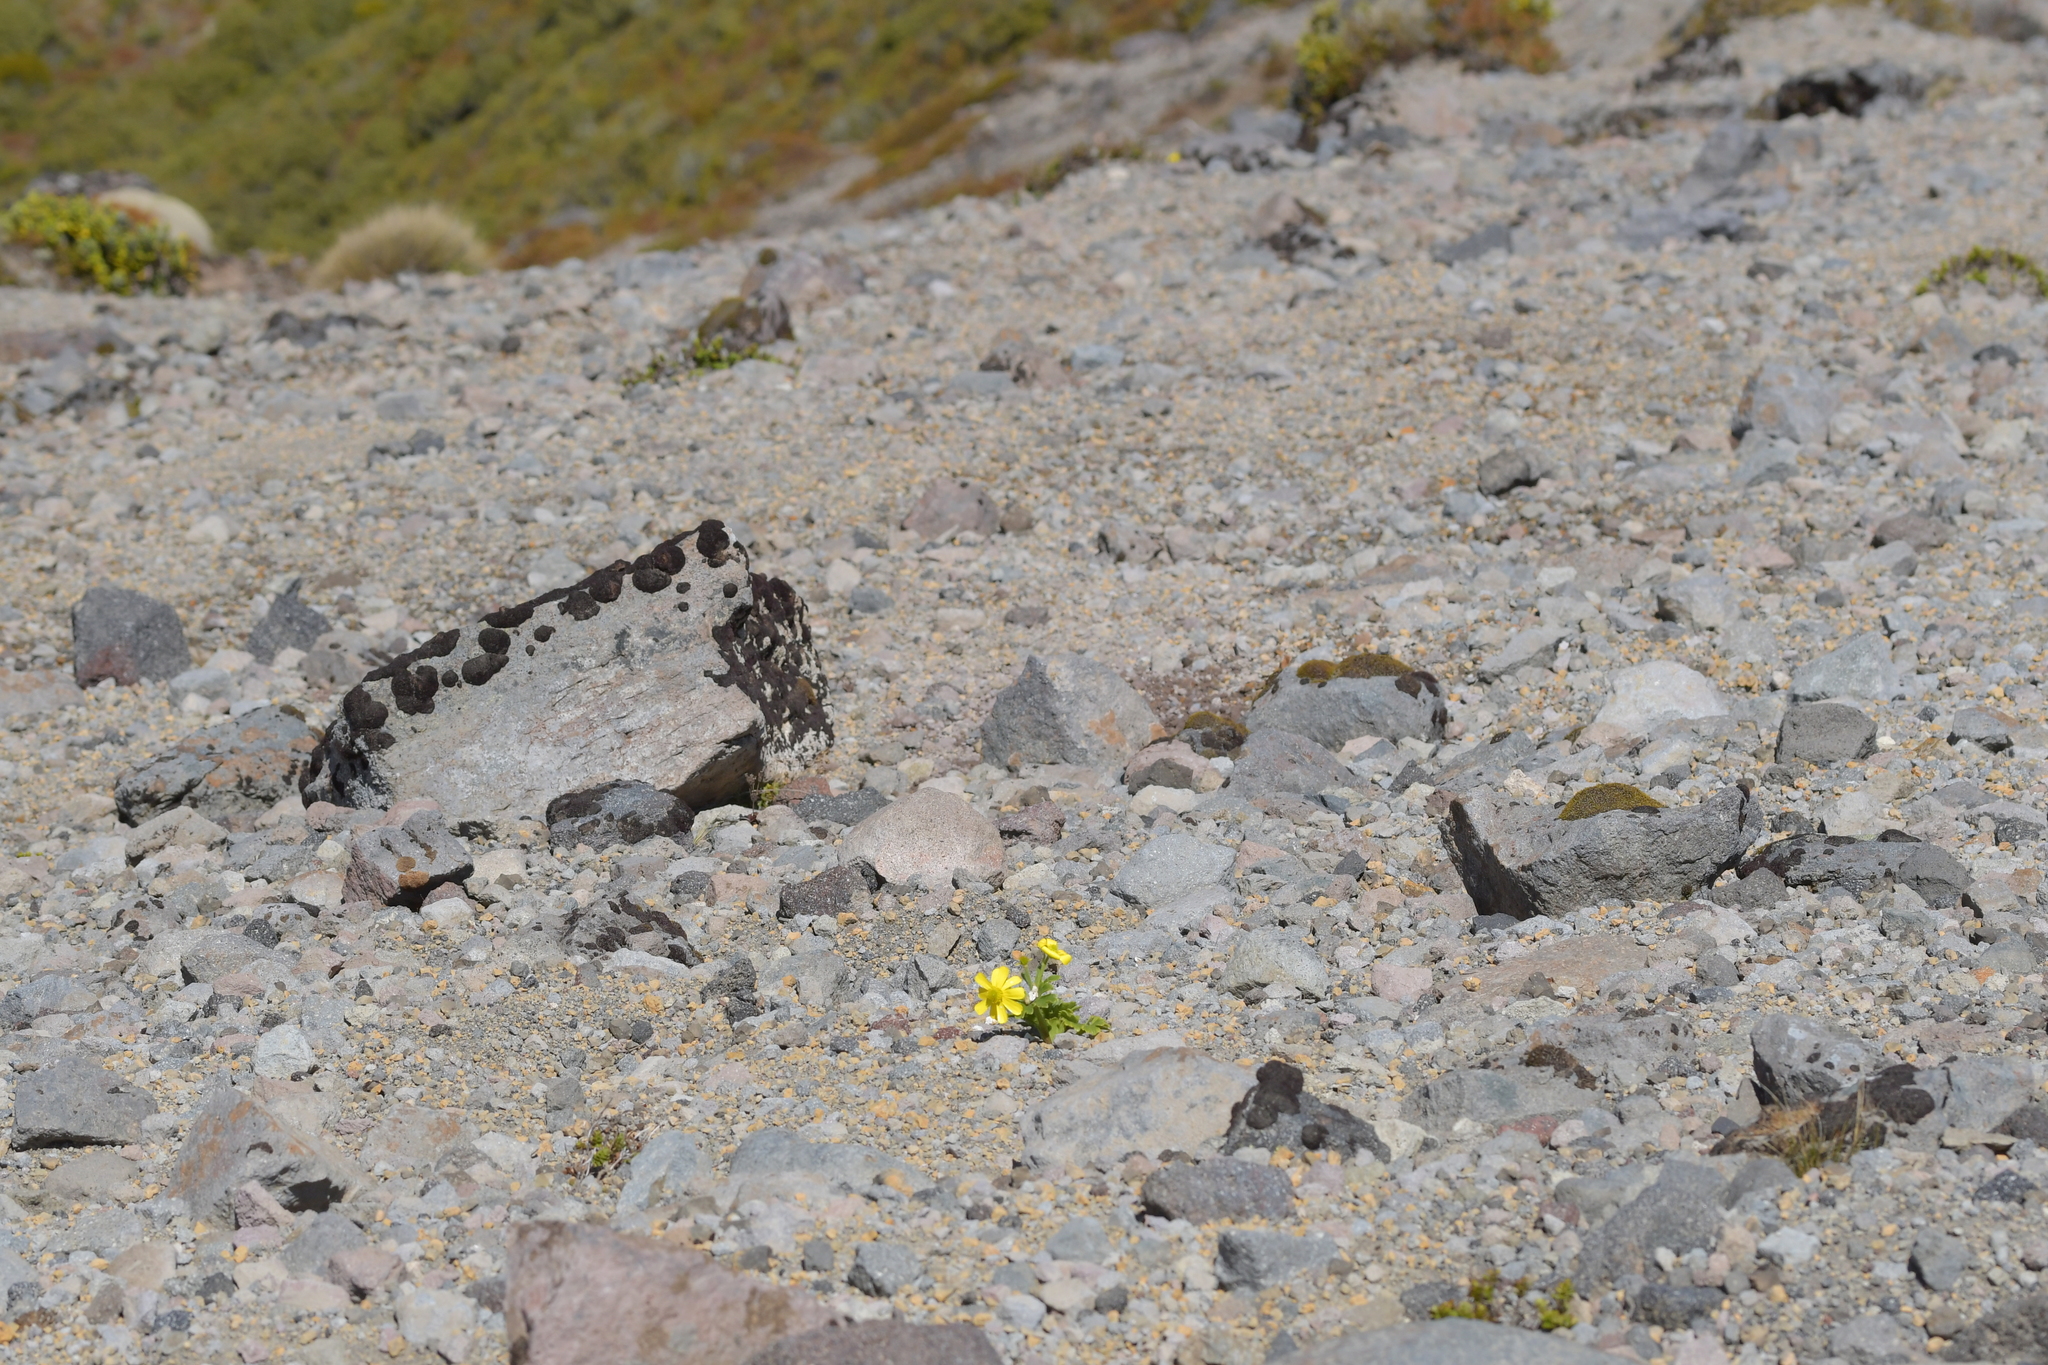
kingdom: Plantae
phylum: Tracheophyta
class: Magnoliopsida
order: Ranunculales
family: Ranunculaceae
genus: Ranunculus
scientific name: Ranunculus nivicola
